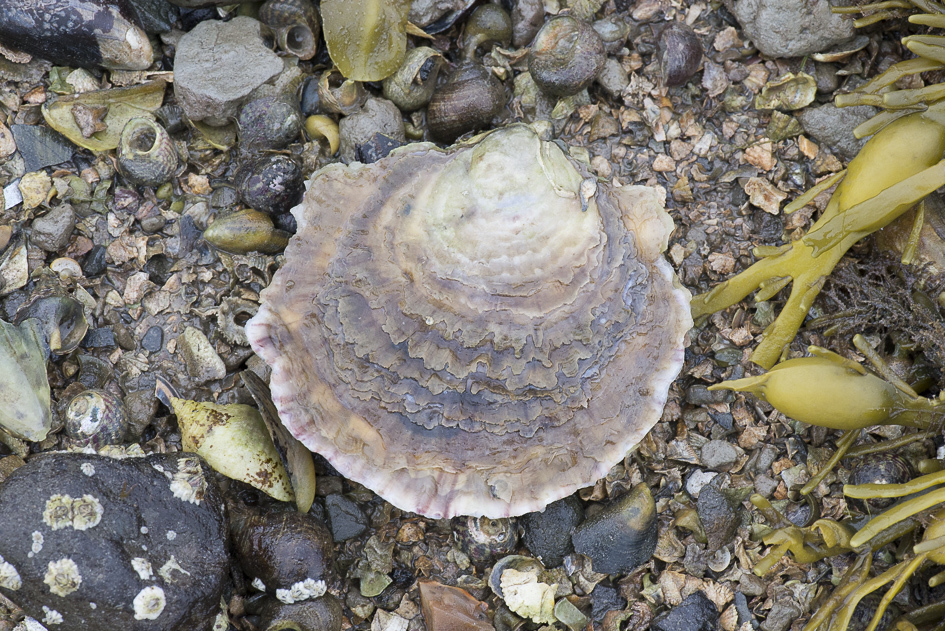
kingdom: Animalia
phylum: Mollusca
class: Bivalvia
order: Ostreida
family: Ostreidae
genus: Ostrea
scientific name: Ostrea edulis
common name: Flat oyster
